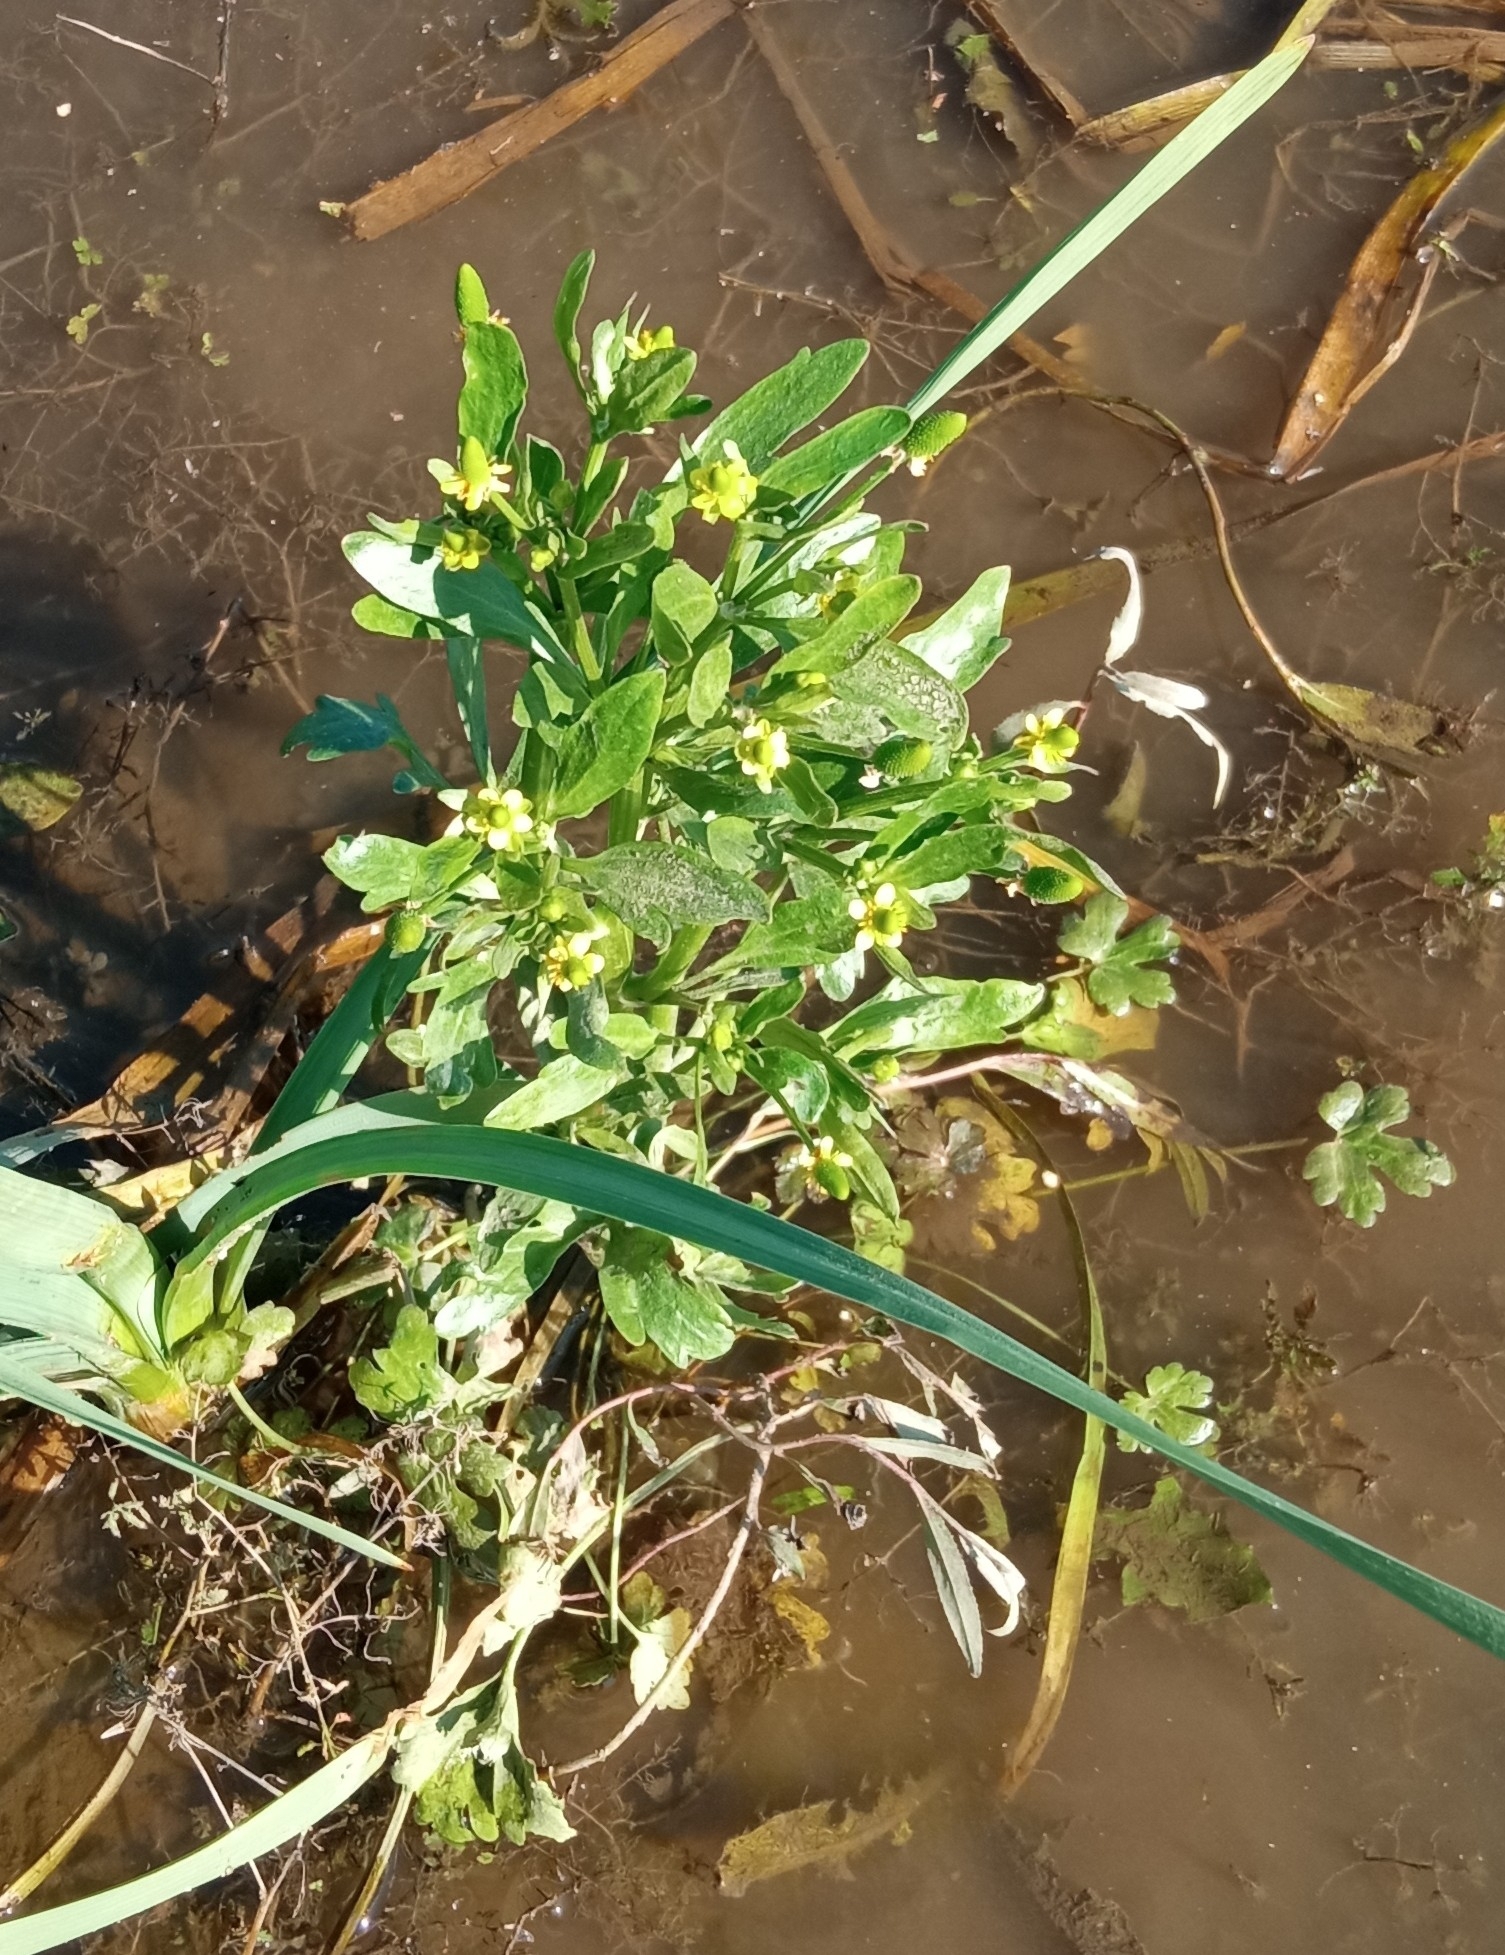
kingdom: Plantae
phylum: Tracheophyta
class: Magnoliopsida
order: Ranunculales
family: Ranunculaceae
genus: Ranunculus
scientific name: Ranunculus sceleratus
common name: Celery-leaved buttercup
